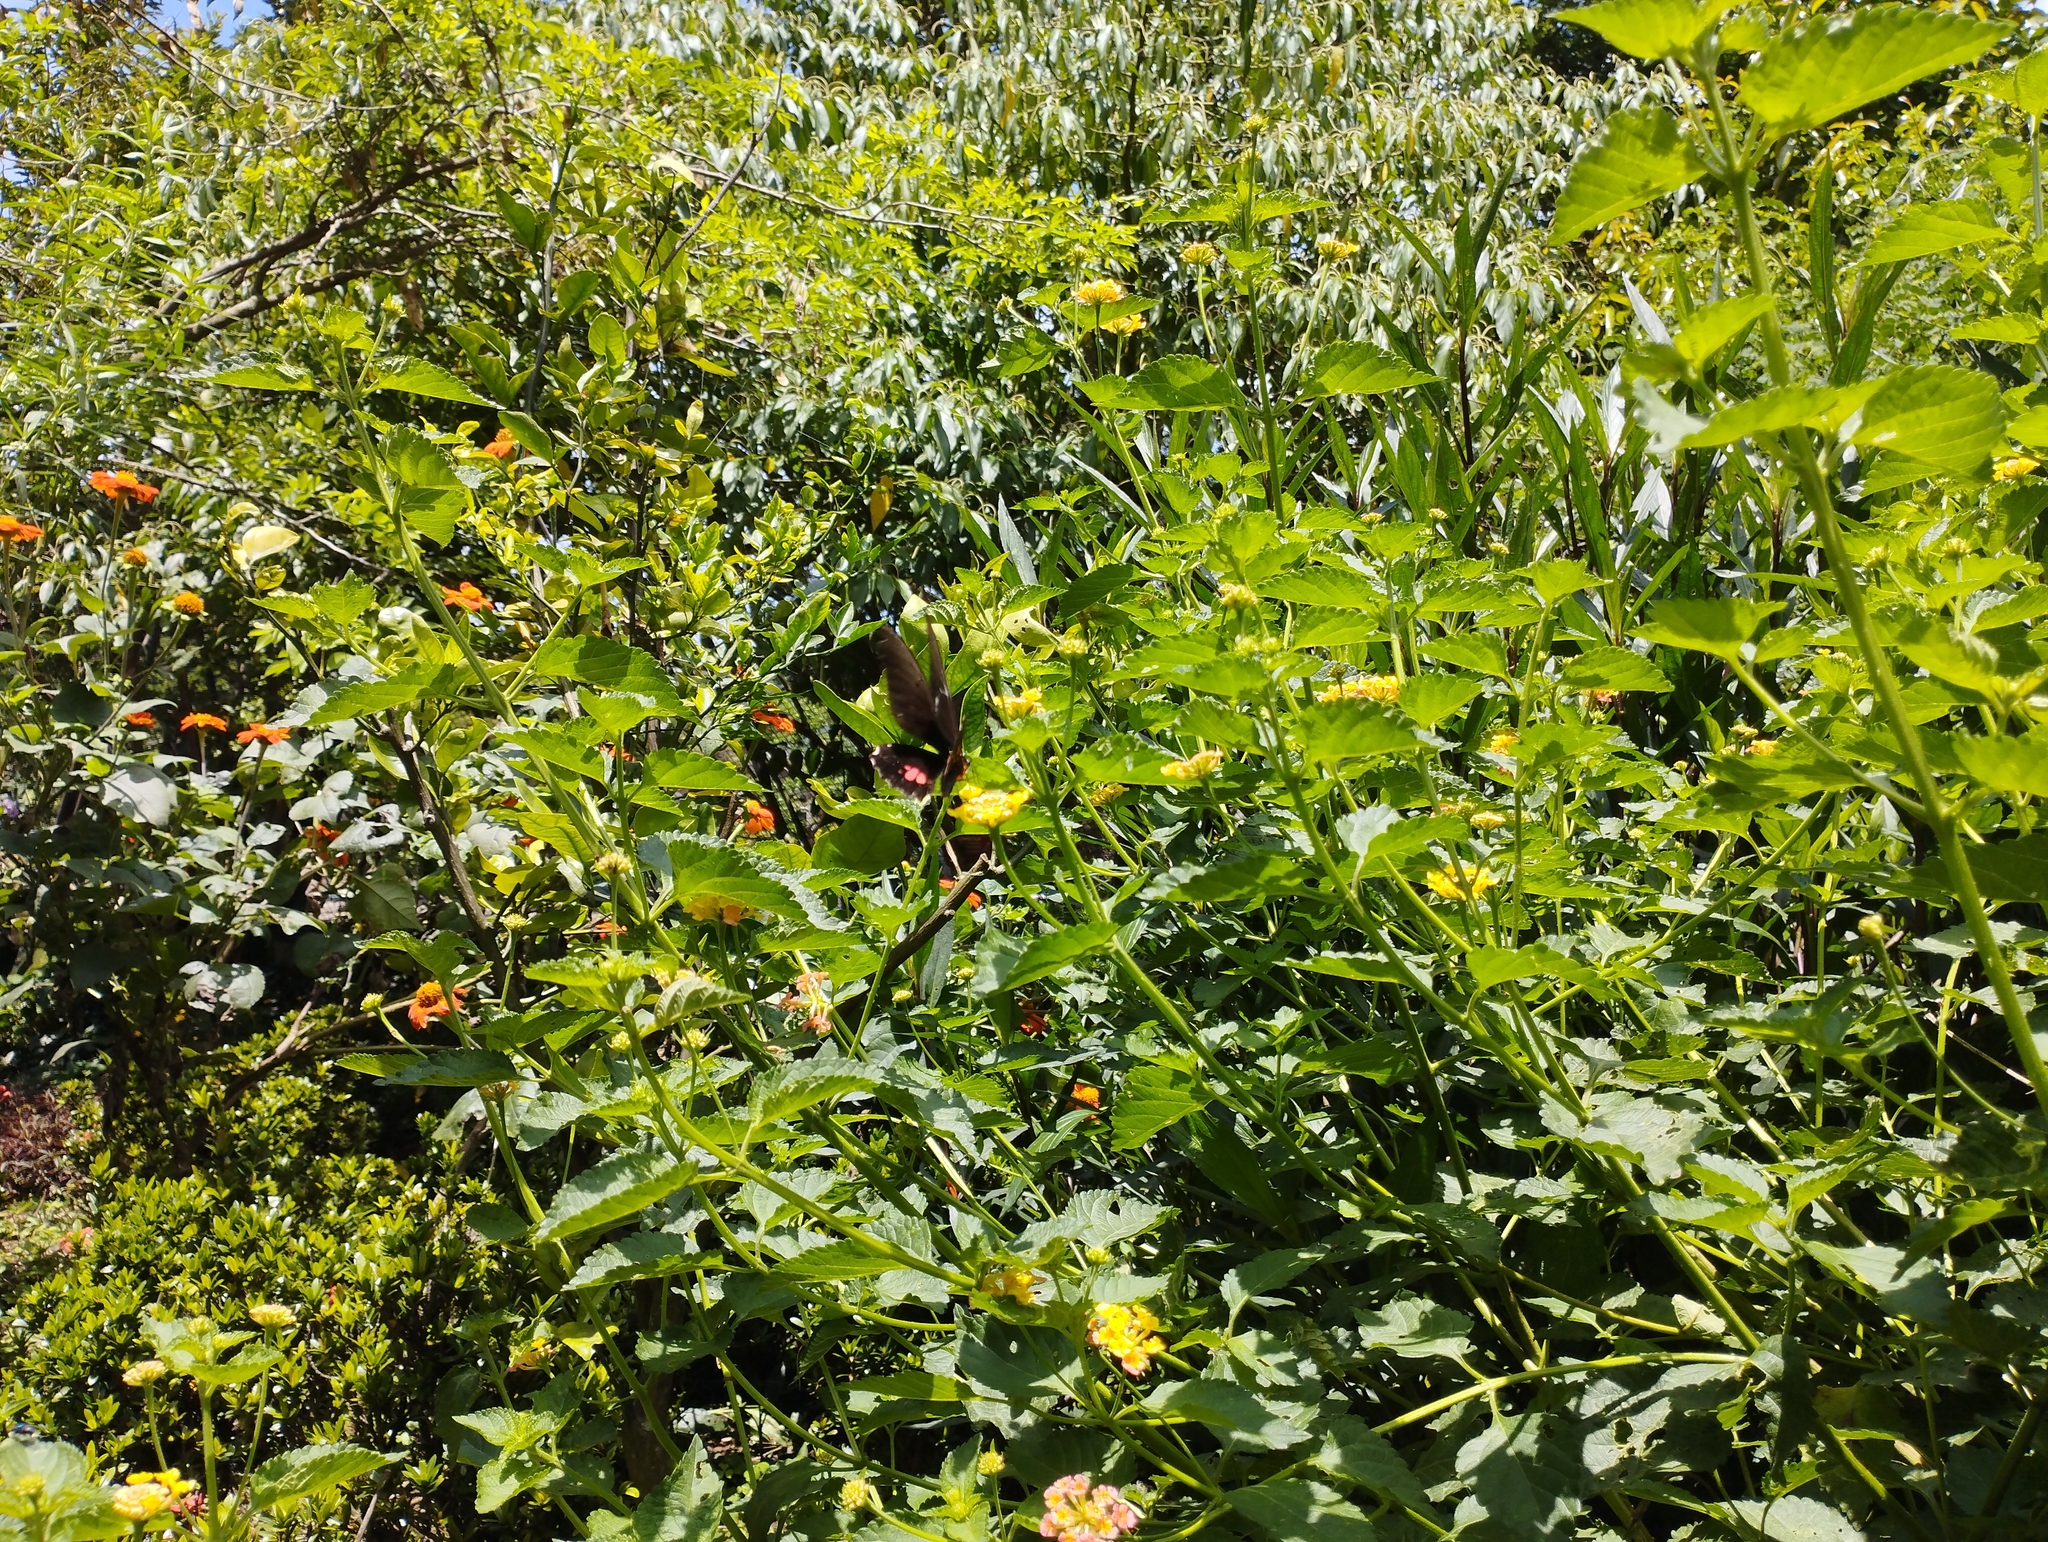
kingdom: Animalia
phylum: Arthropoda
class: Insecta
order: Lepidoptera
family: Papilionidae
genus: Papilio
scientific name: Papilio anchisiades
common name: Idaes swallowtail
